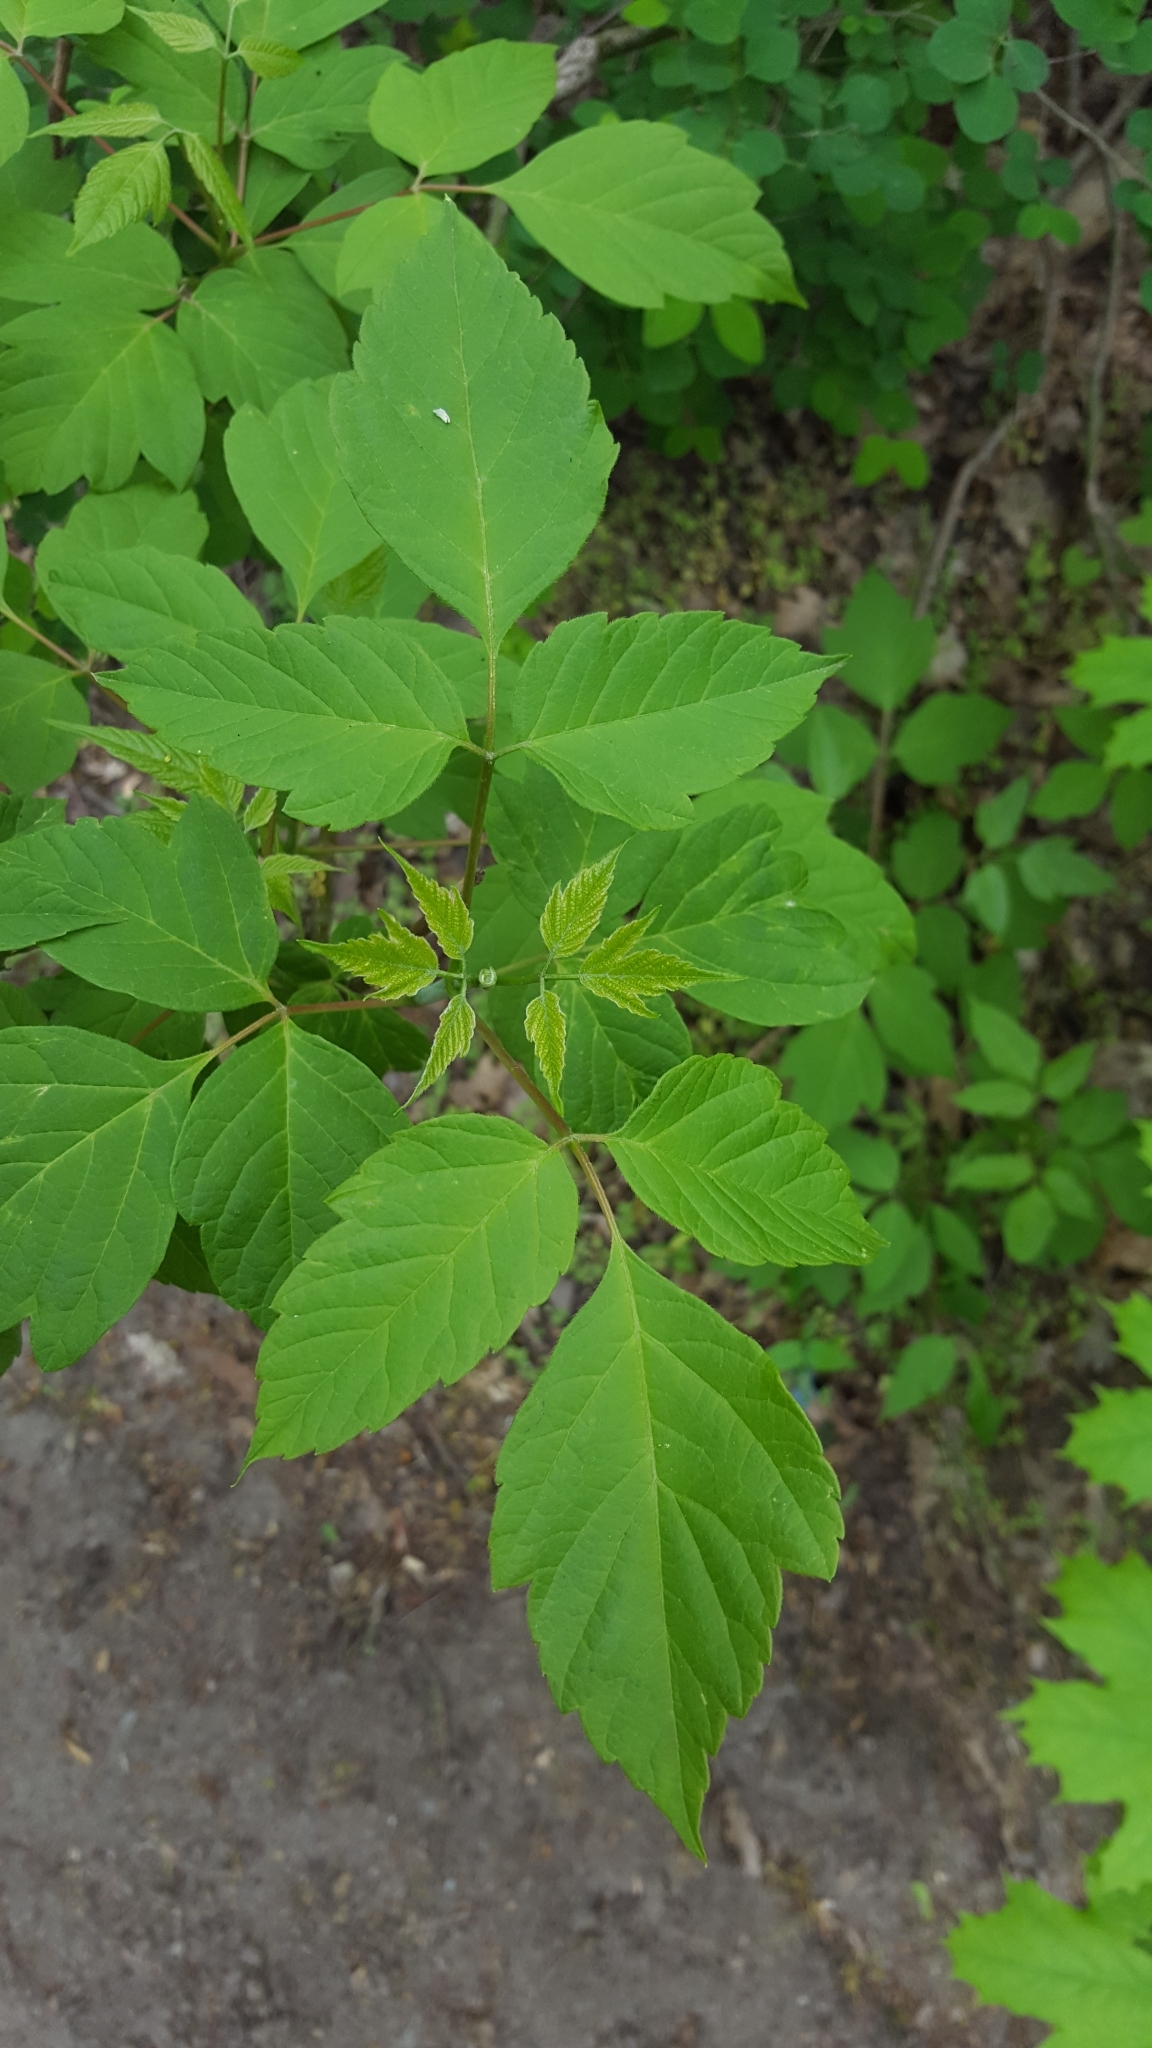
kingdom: Plantae
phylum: Tracheophyta
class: Magnoliopsida
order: Sapindales
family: Sapindaceae
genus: Acer
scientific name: Acer negundo
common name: Ashleaf maple
